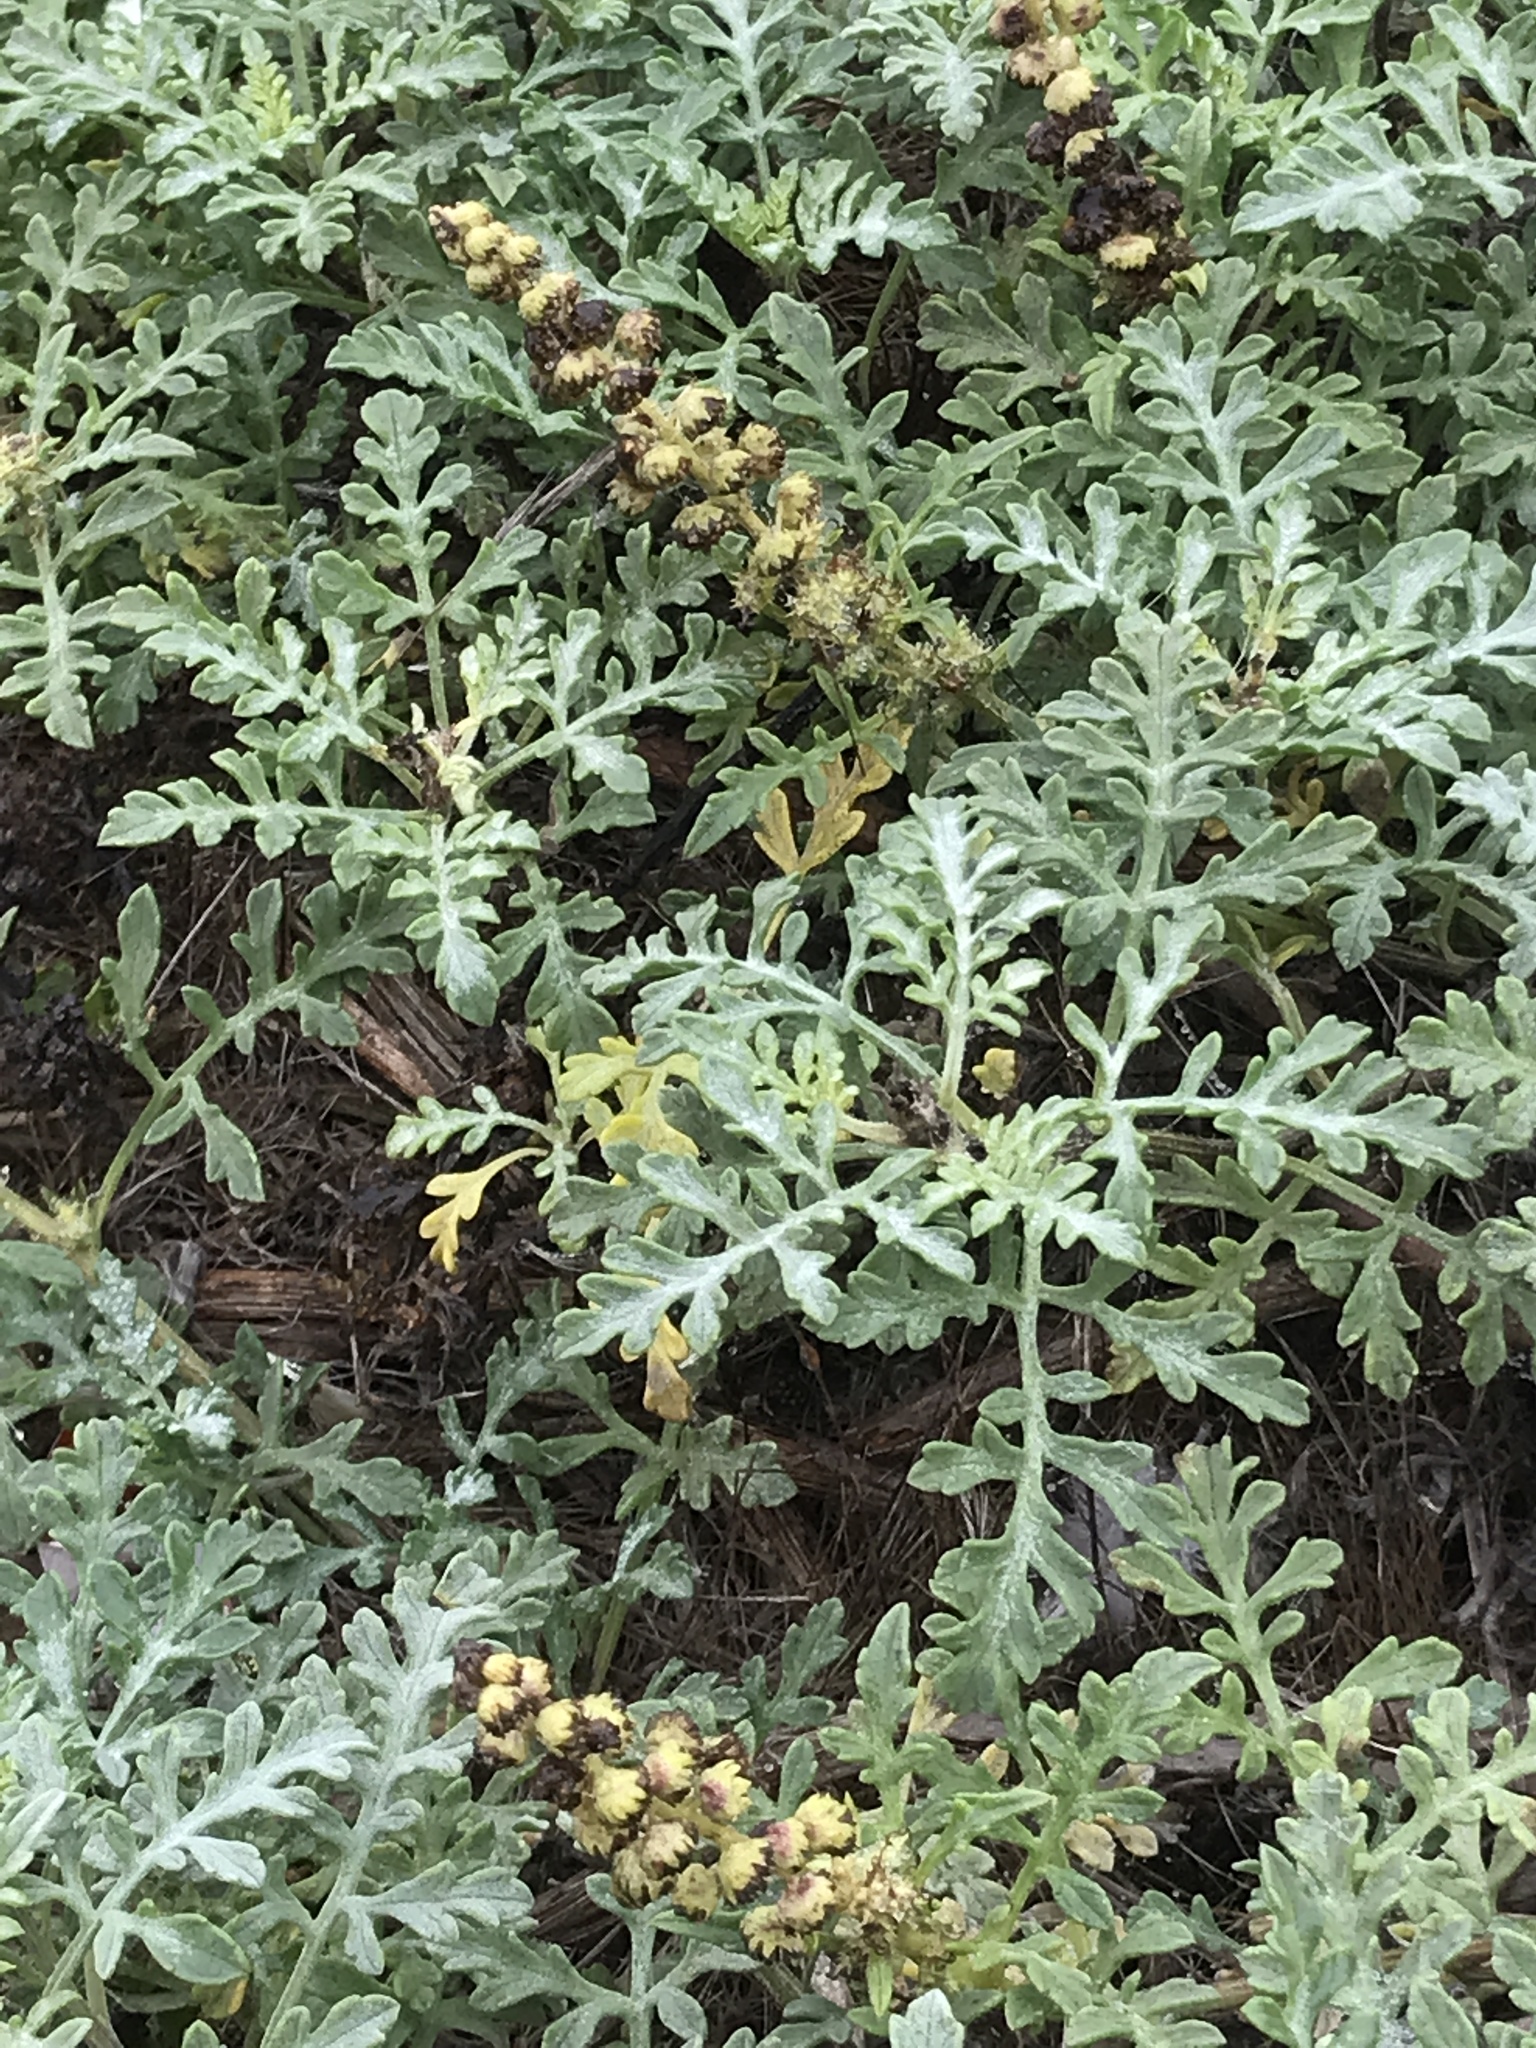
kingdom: Plantae
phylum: Tracheophyta
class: Magnoliopsida
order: Asterales
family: Asteraceae
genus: Ambrosia
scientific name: Ambrosia chamissonis
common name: Beachbur
